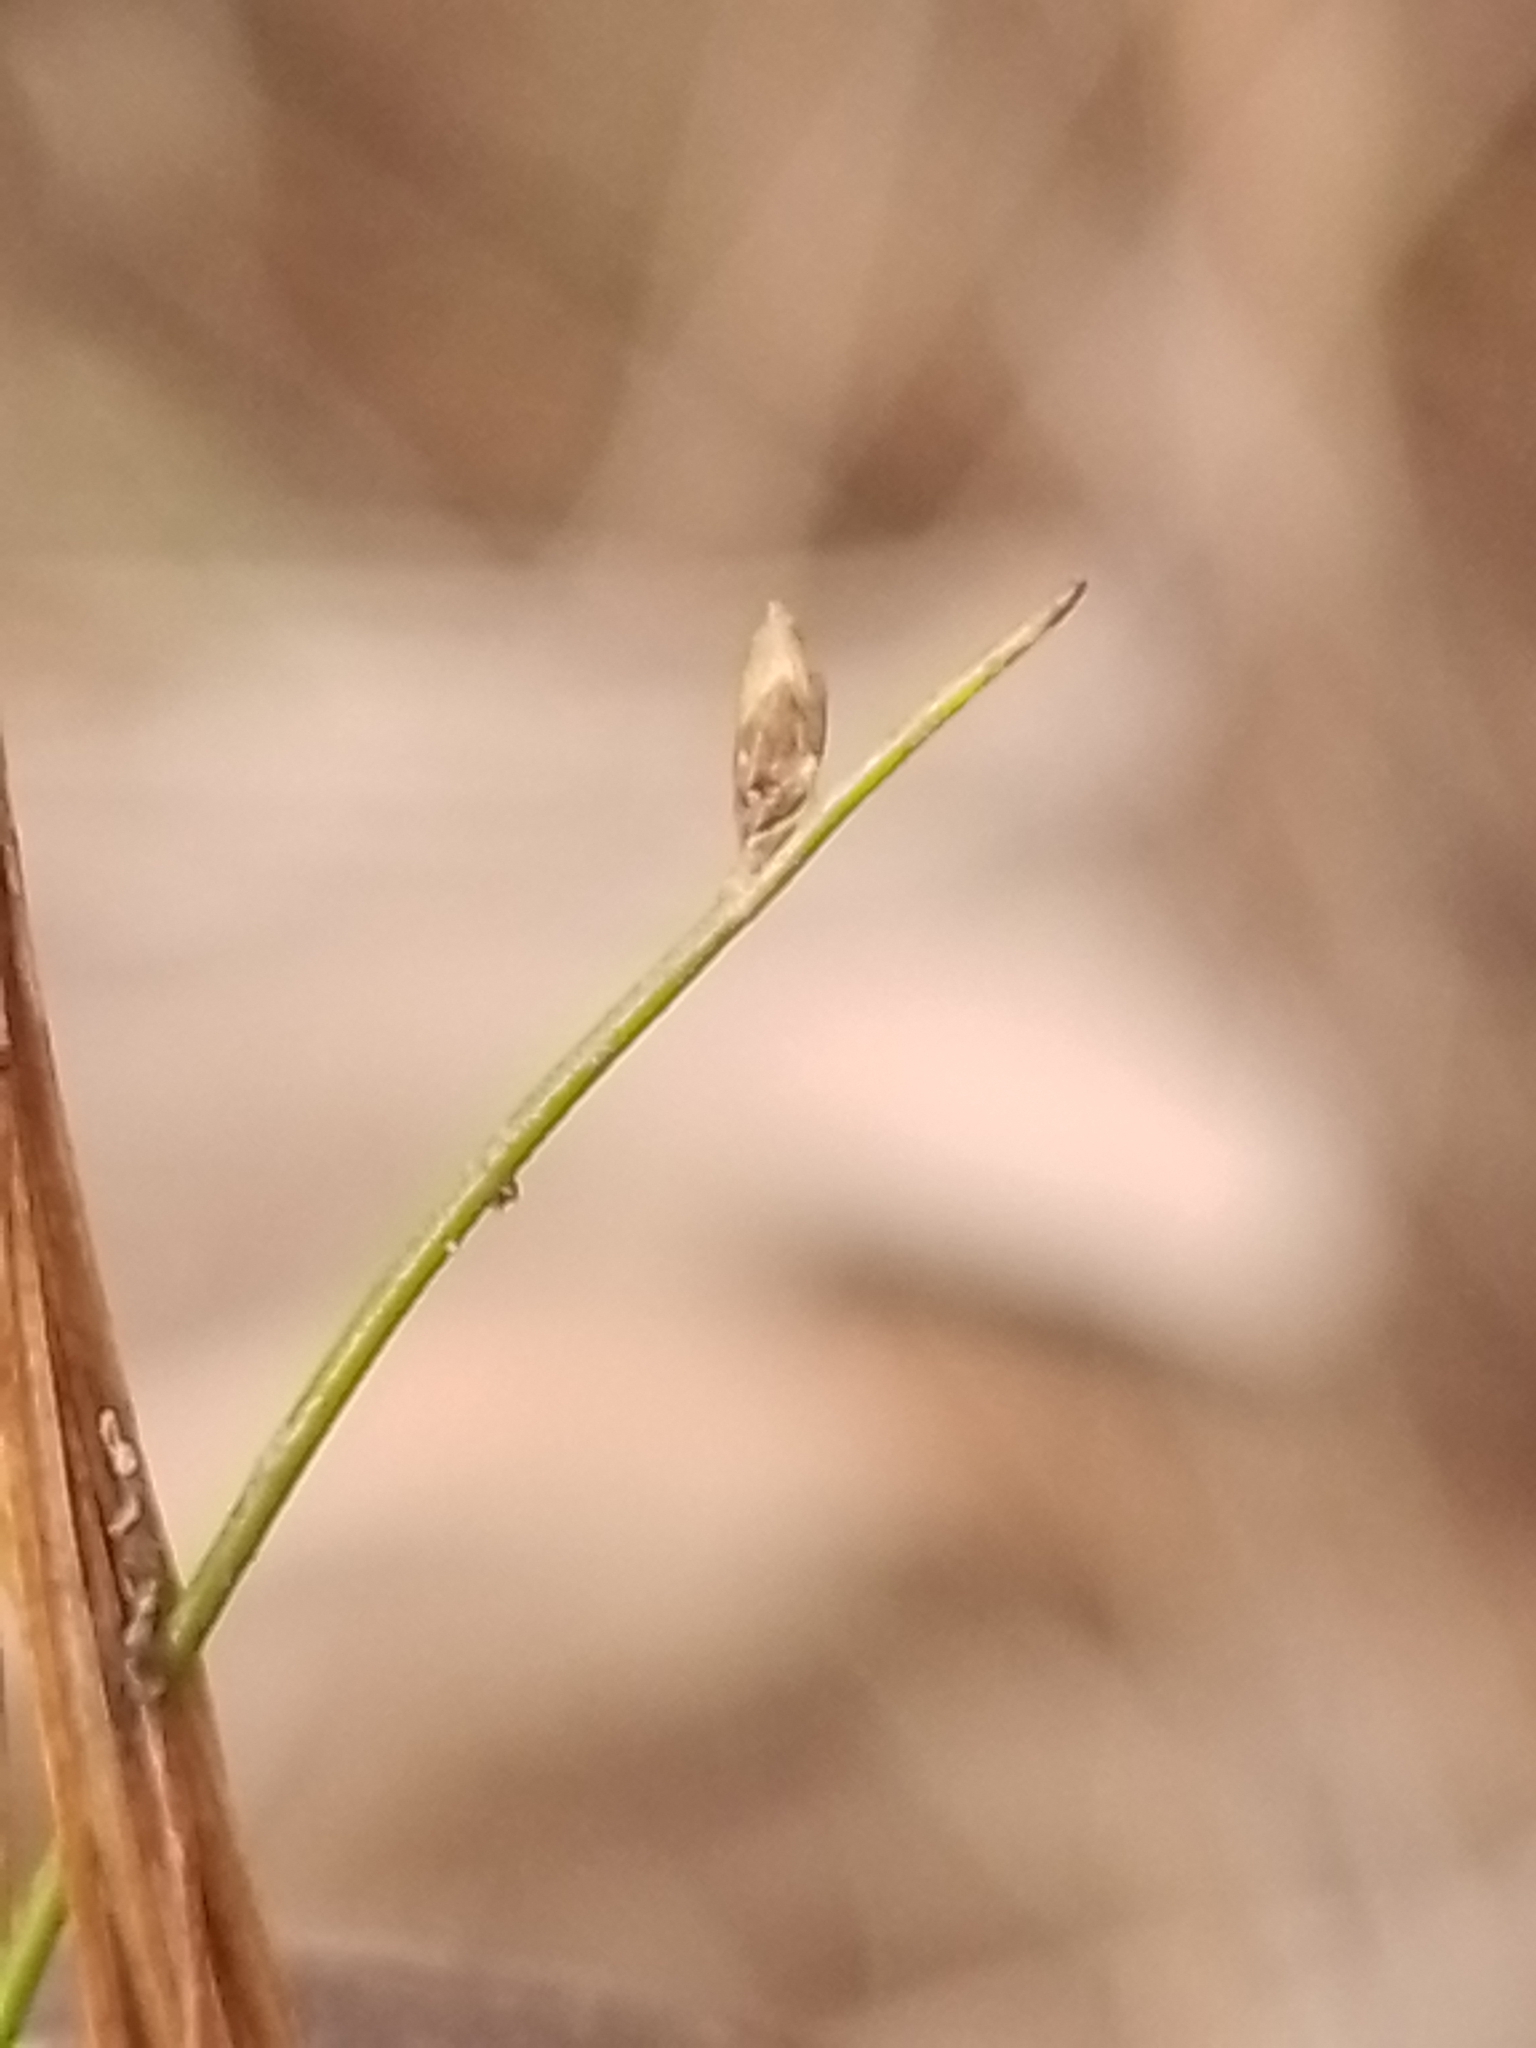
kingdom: Plantae
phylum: Tracheophyta
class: Liliopsida
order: Poales
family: Cyperaceae
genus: Isolepis
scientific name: Isolepis cernua
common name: Slender club-rush
